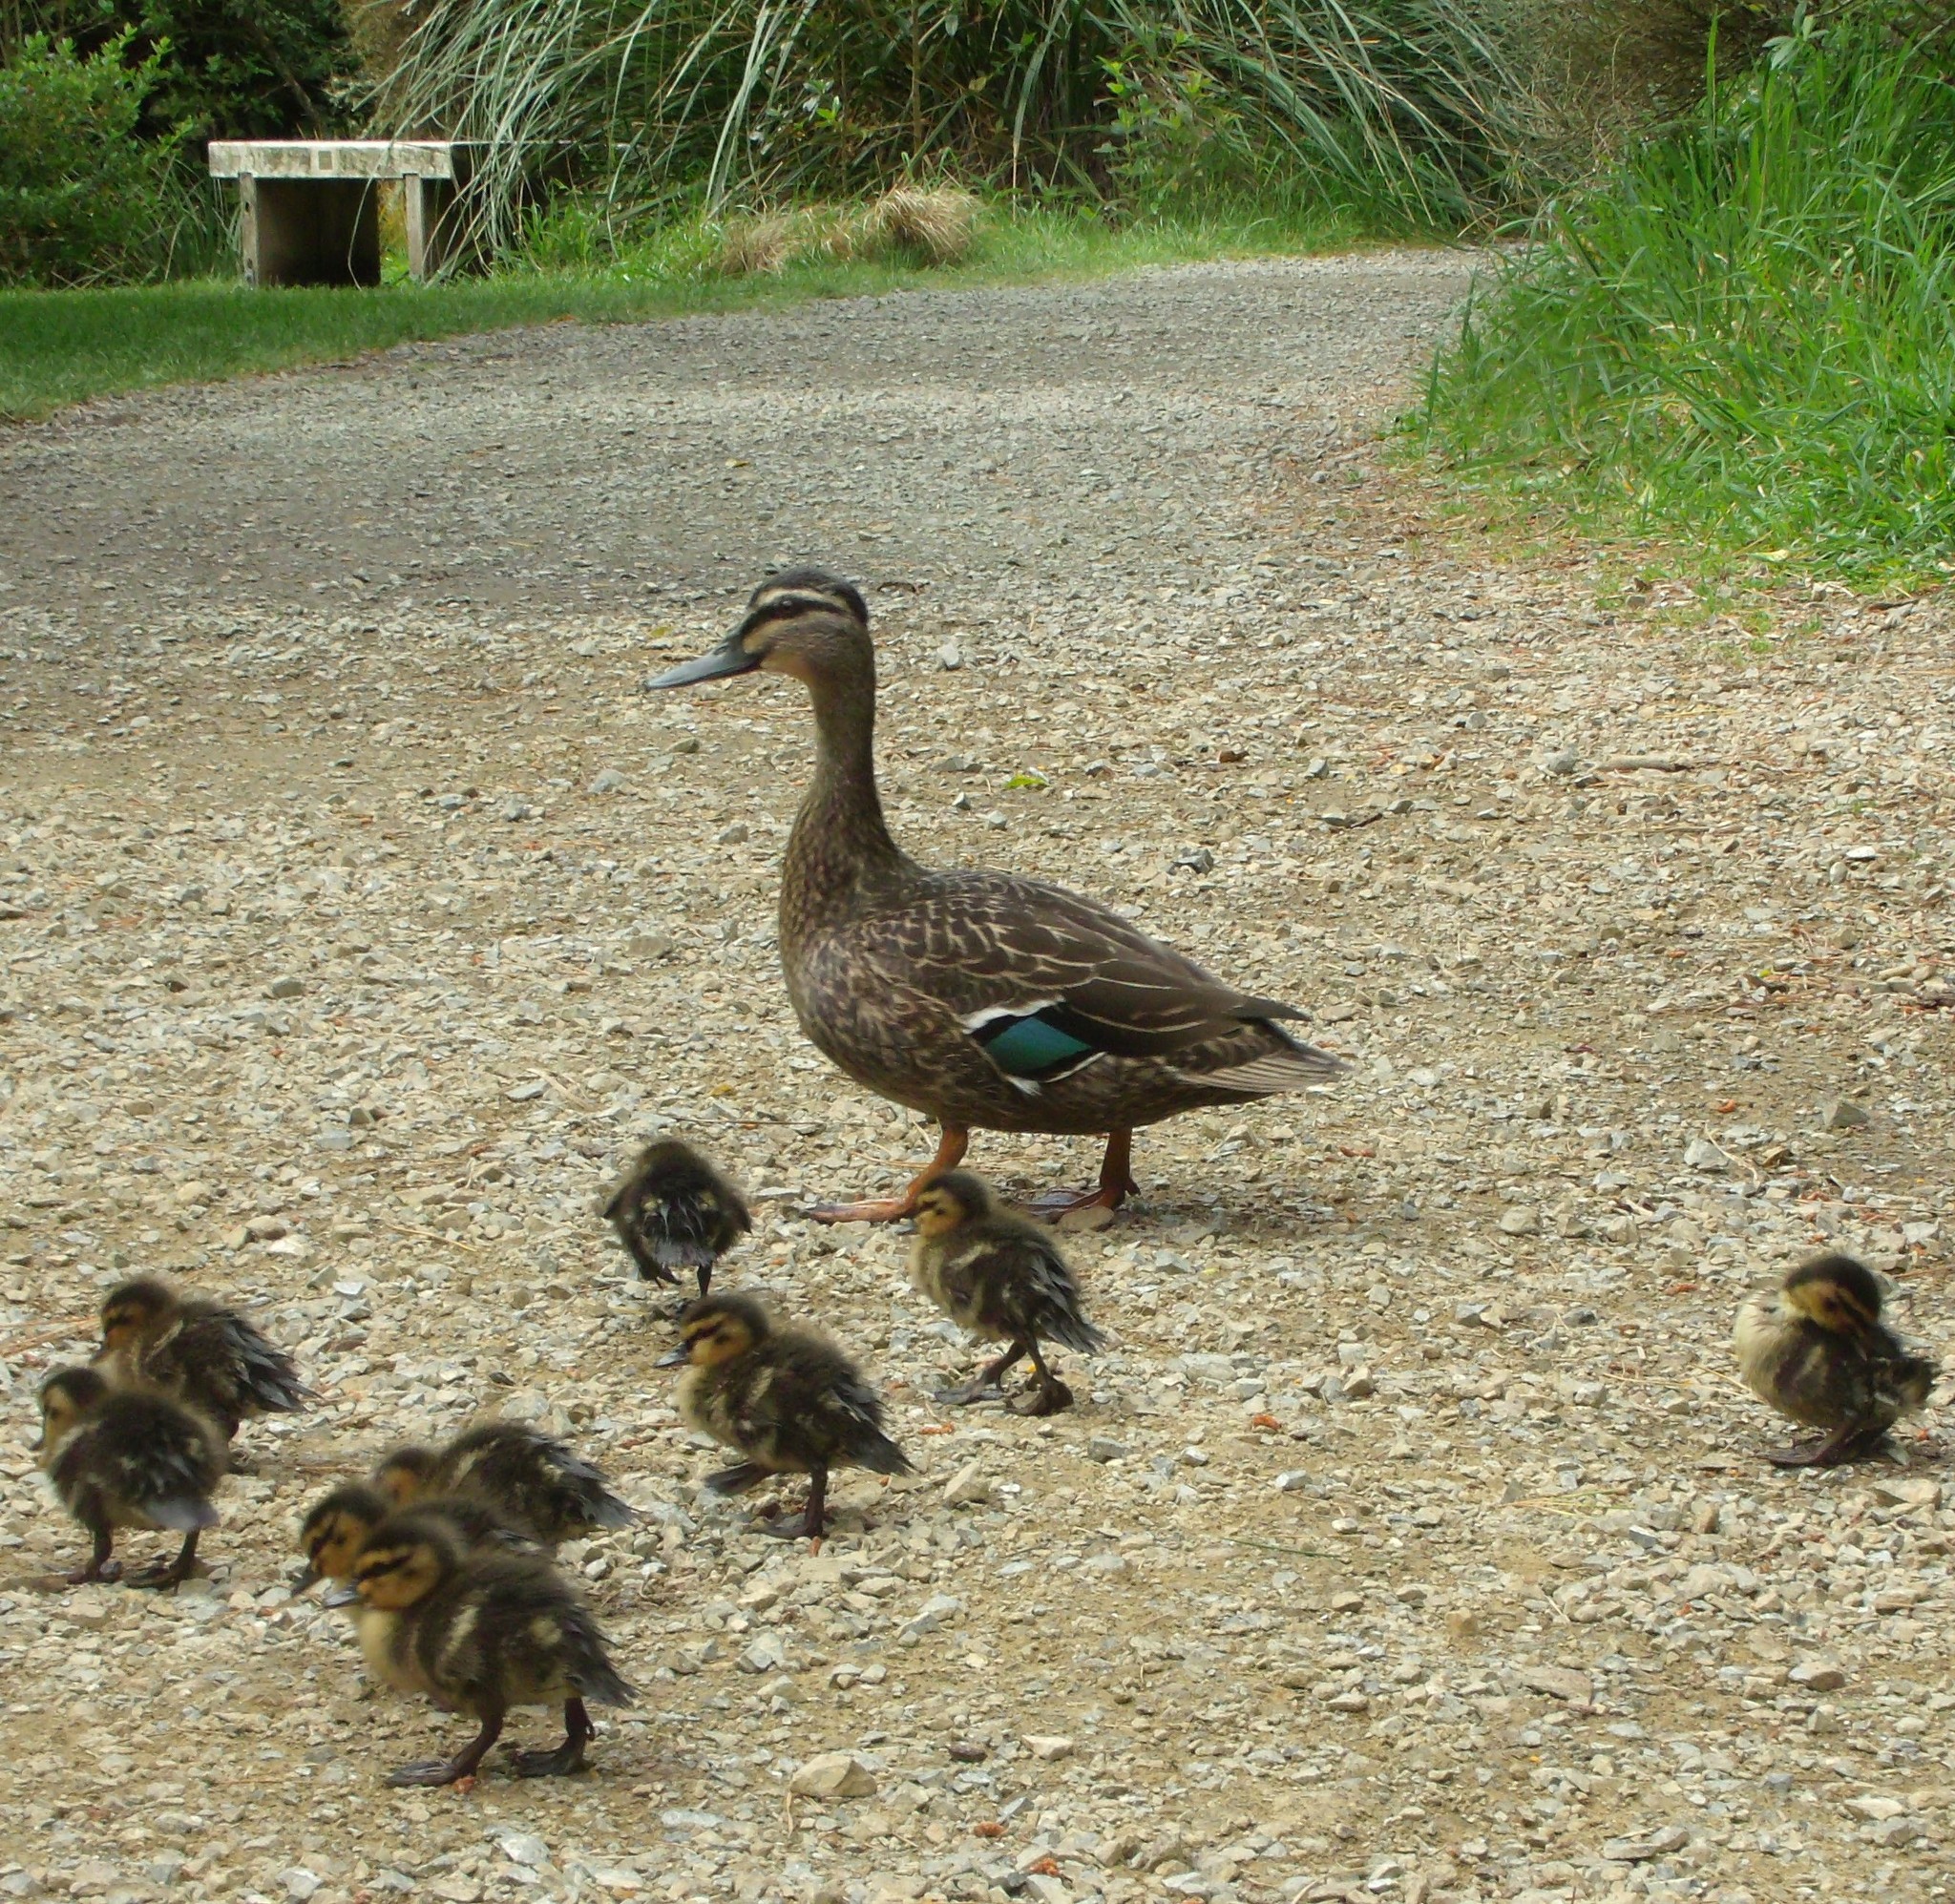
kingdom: Animalia
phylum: Chordata
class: Aves
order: Anseriformes
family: Anatidae
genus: Anas
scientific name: Anas
